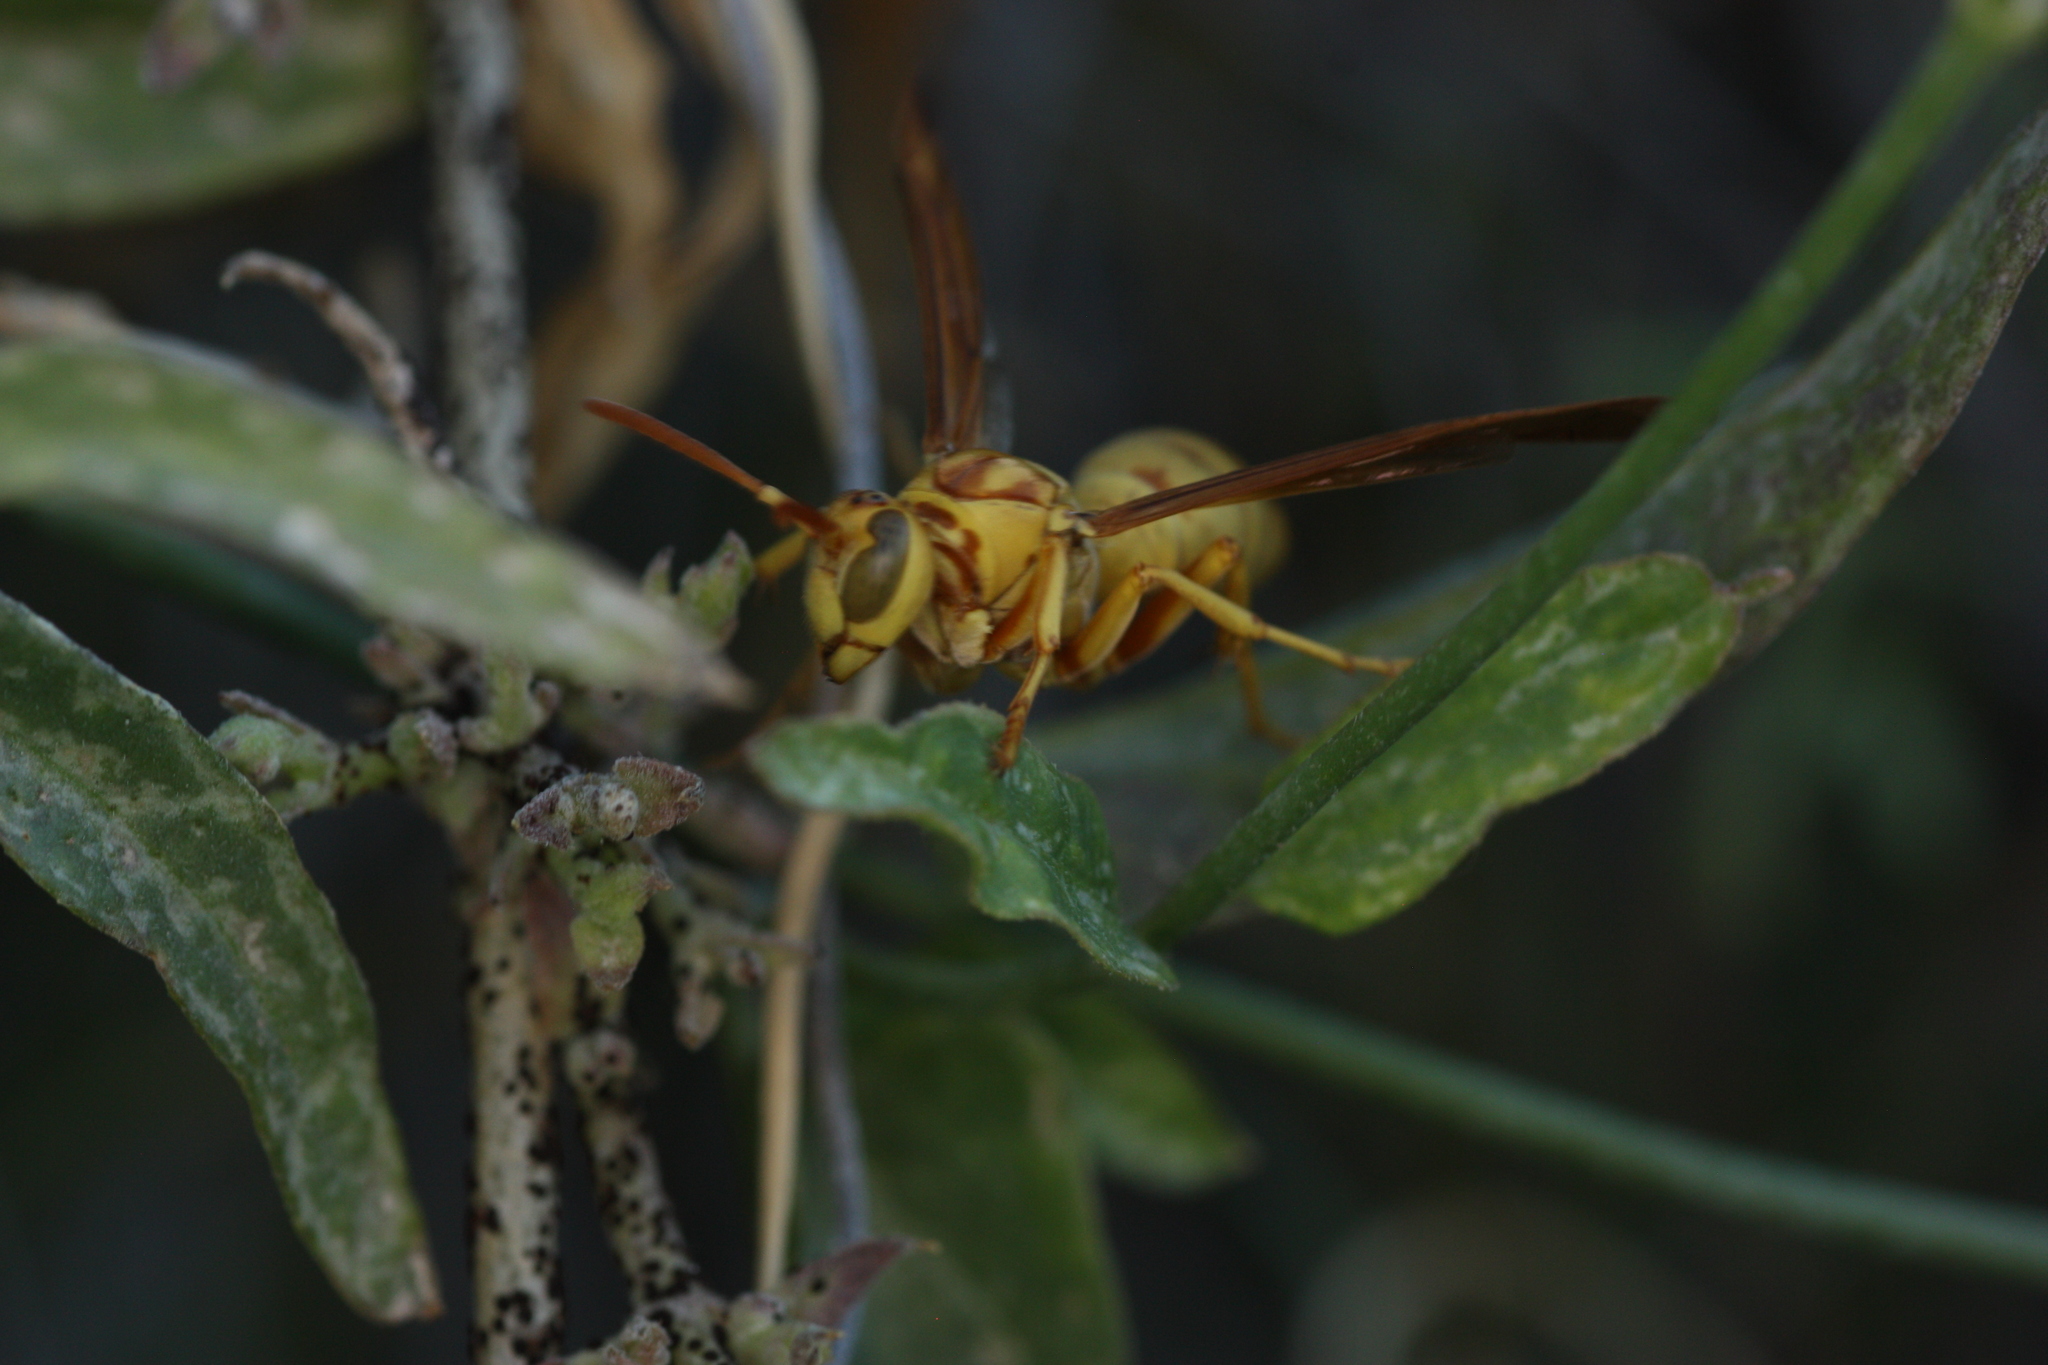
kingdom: Animalia
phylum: Arthropoda
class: Insecta
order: Hymenoptera
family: Eumenidae
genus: Polistes
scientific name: Polistes aurifer
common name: Paper wasp
